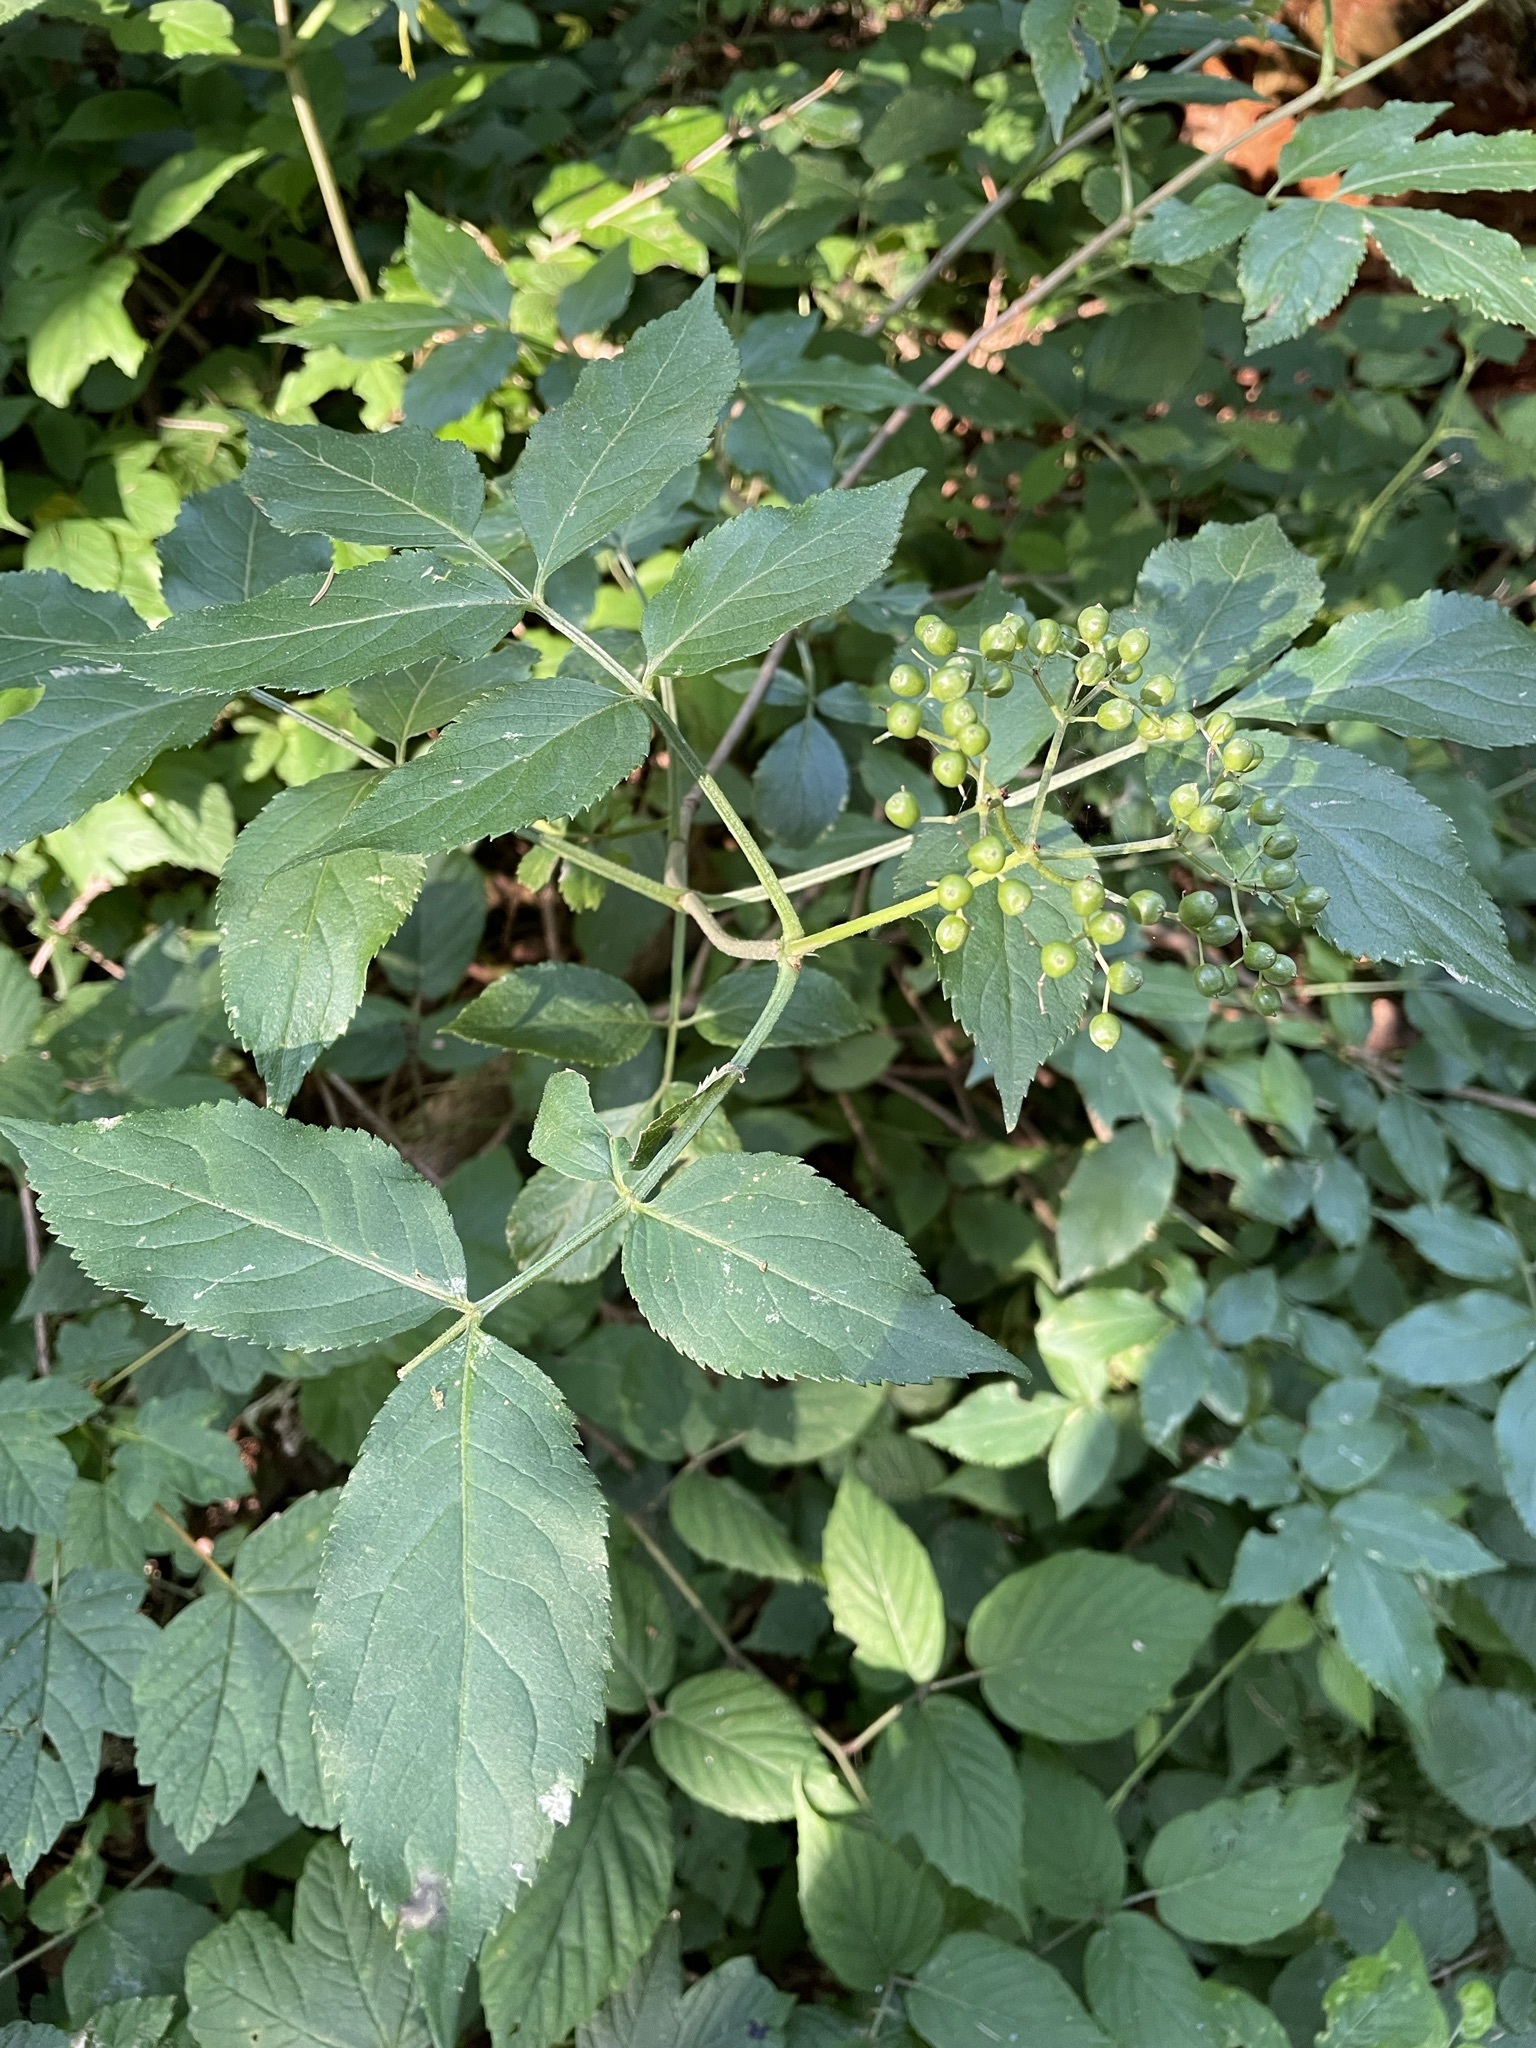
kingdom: Plantae
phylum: Tracheophyta
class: Magnoliopsida
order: Dipsacales
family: Viburnaceae
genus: Sambucus
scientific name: Sambucus nigra
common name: Elder
